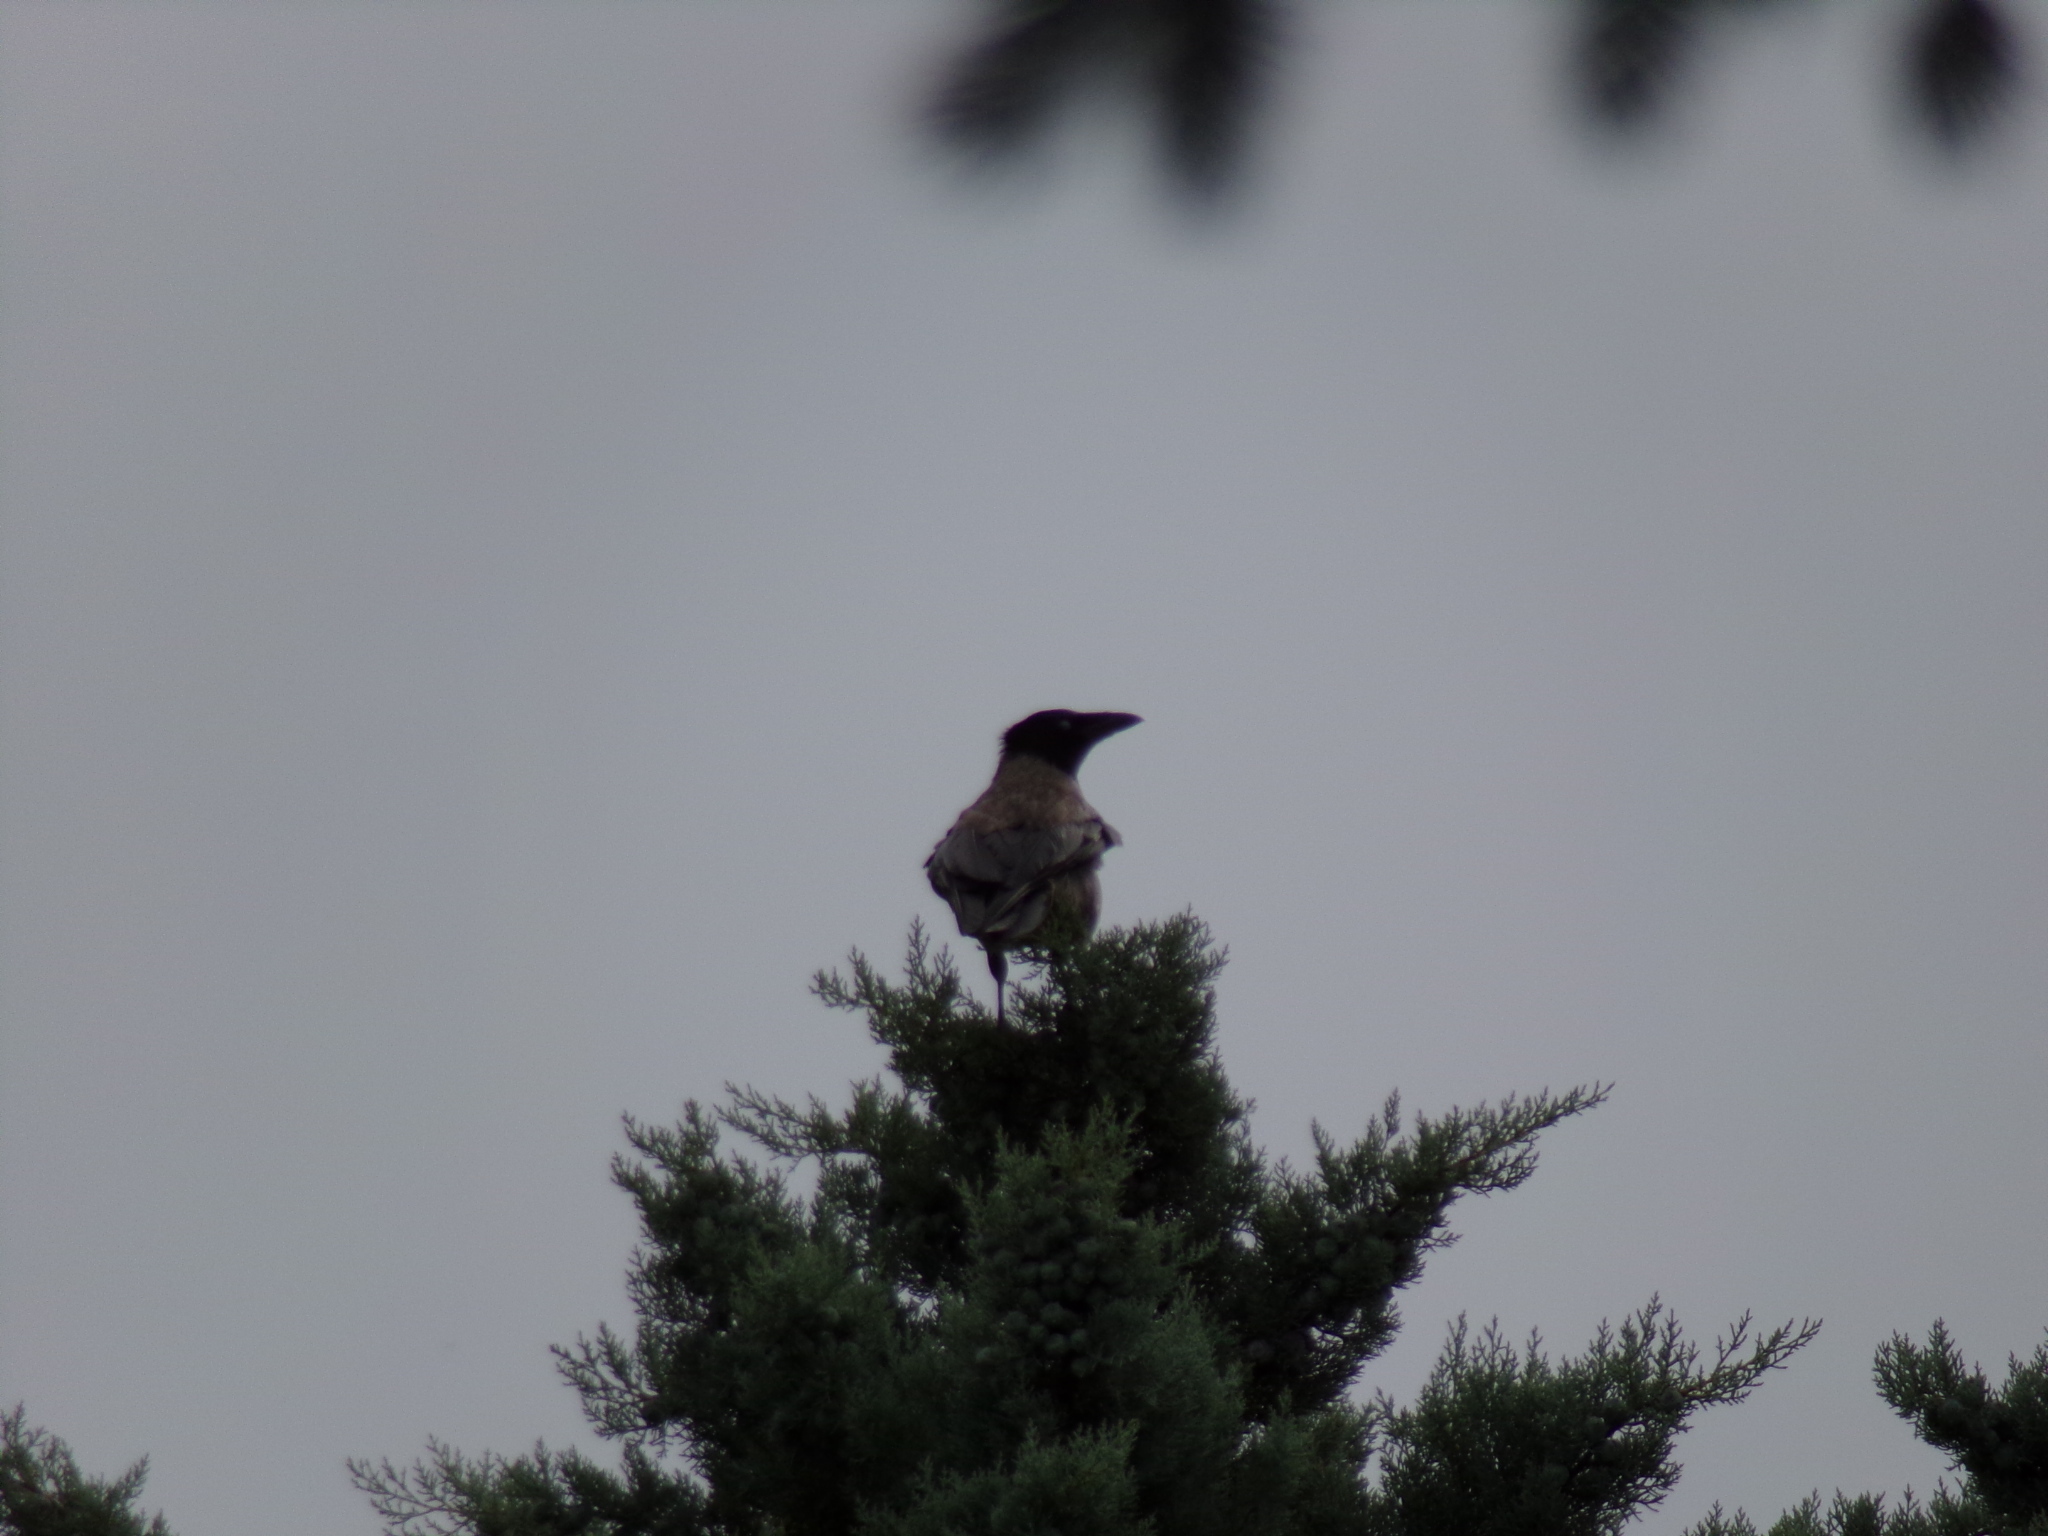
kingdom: Animalia
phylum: Chordata
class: Aves
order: Passeriformes
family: Corvidae
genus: Corvus
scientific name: Corvus cornix
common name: Hooded crow
